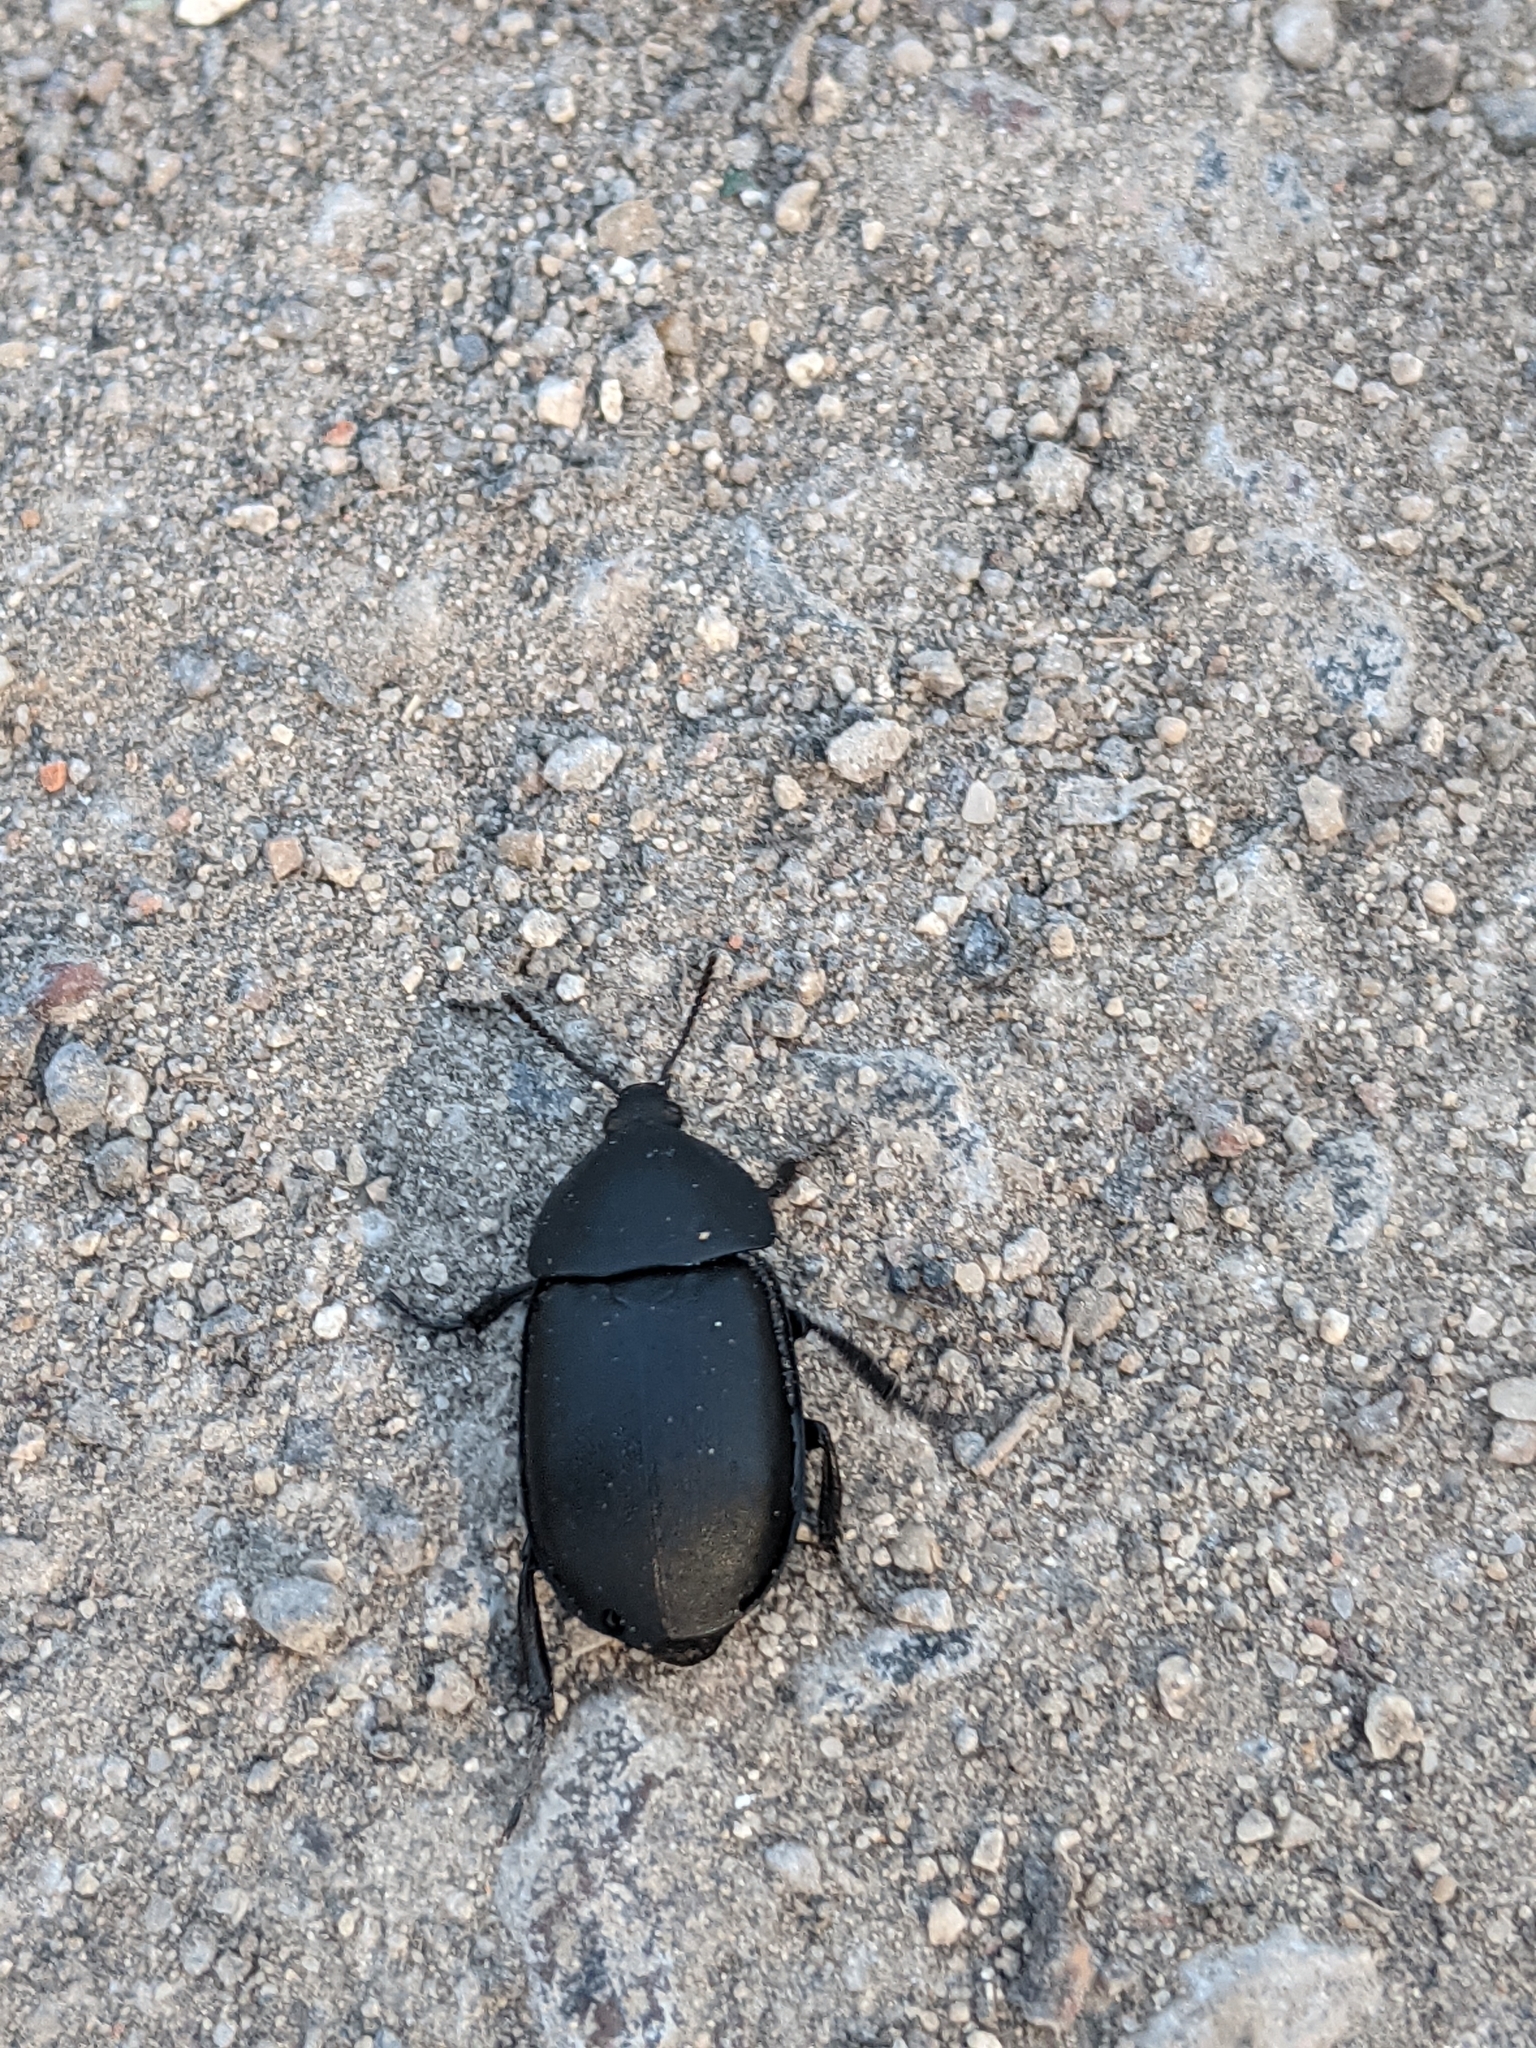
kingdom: Animalia
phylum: Arthropoda
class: Insecta
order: Coleoptera
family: Staphylinidae
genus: Silpha
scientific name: Silpha laevigata
